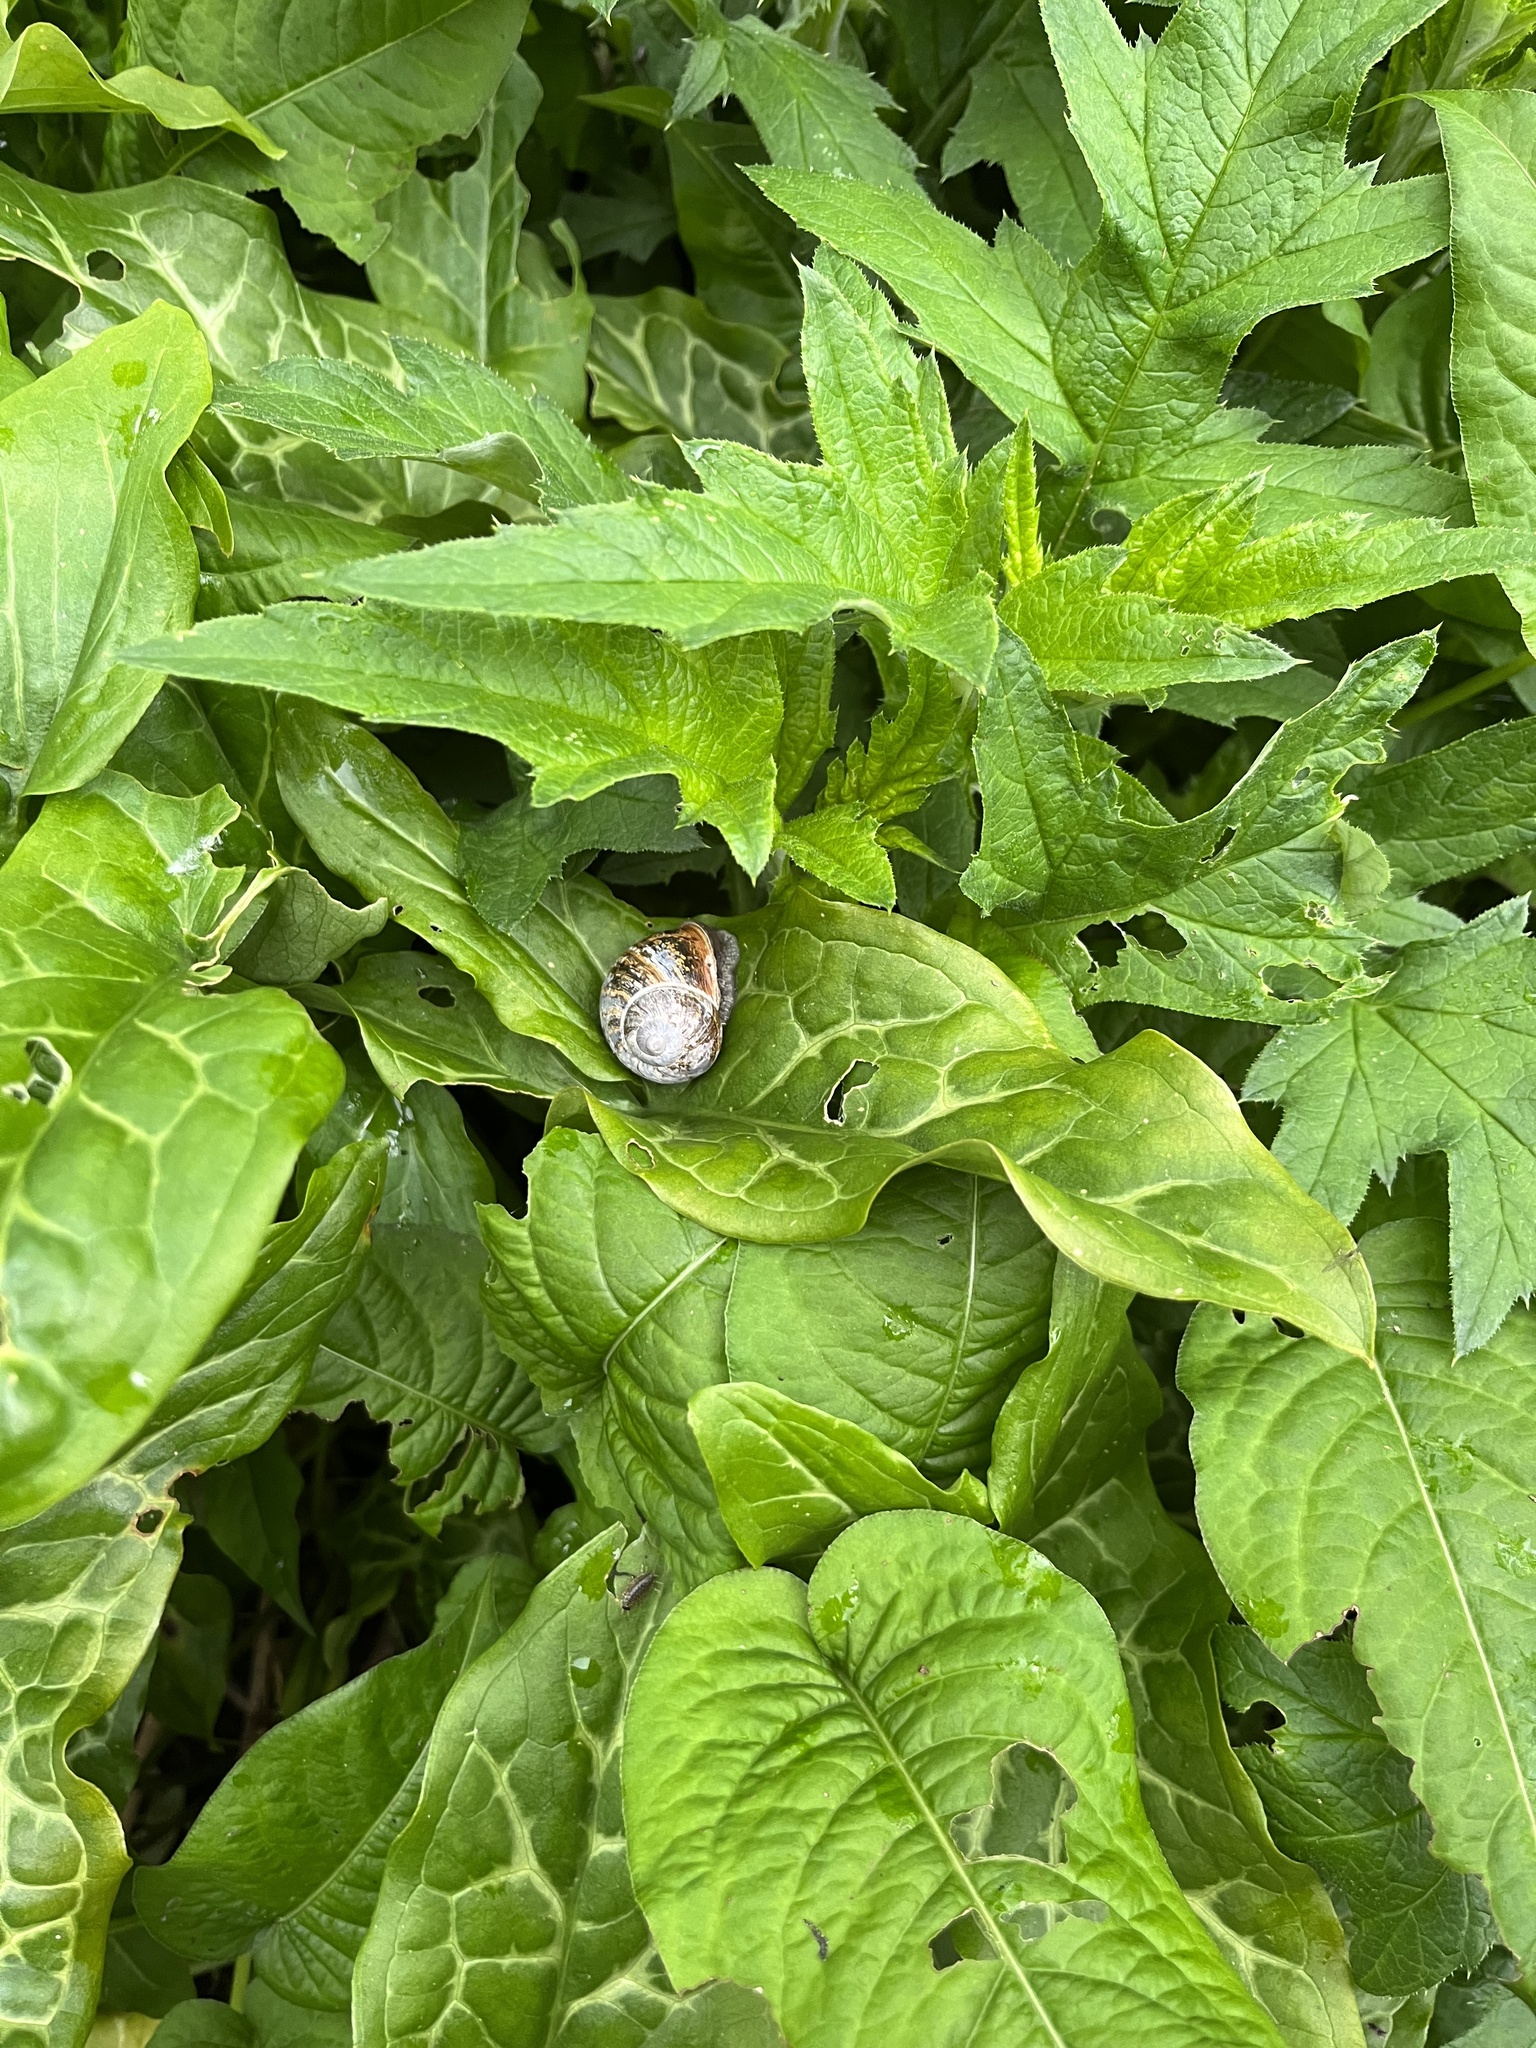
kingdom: Animalia
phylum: Mollusca
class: Gastropoda
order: Stylommatophora
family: Helicidae
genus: Cornu
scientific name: Cornu aspersum
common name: Brown garden snail
